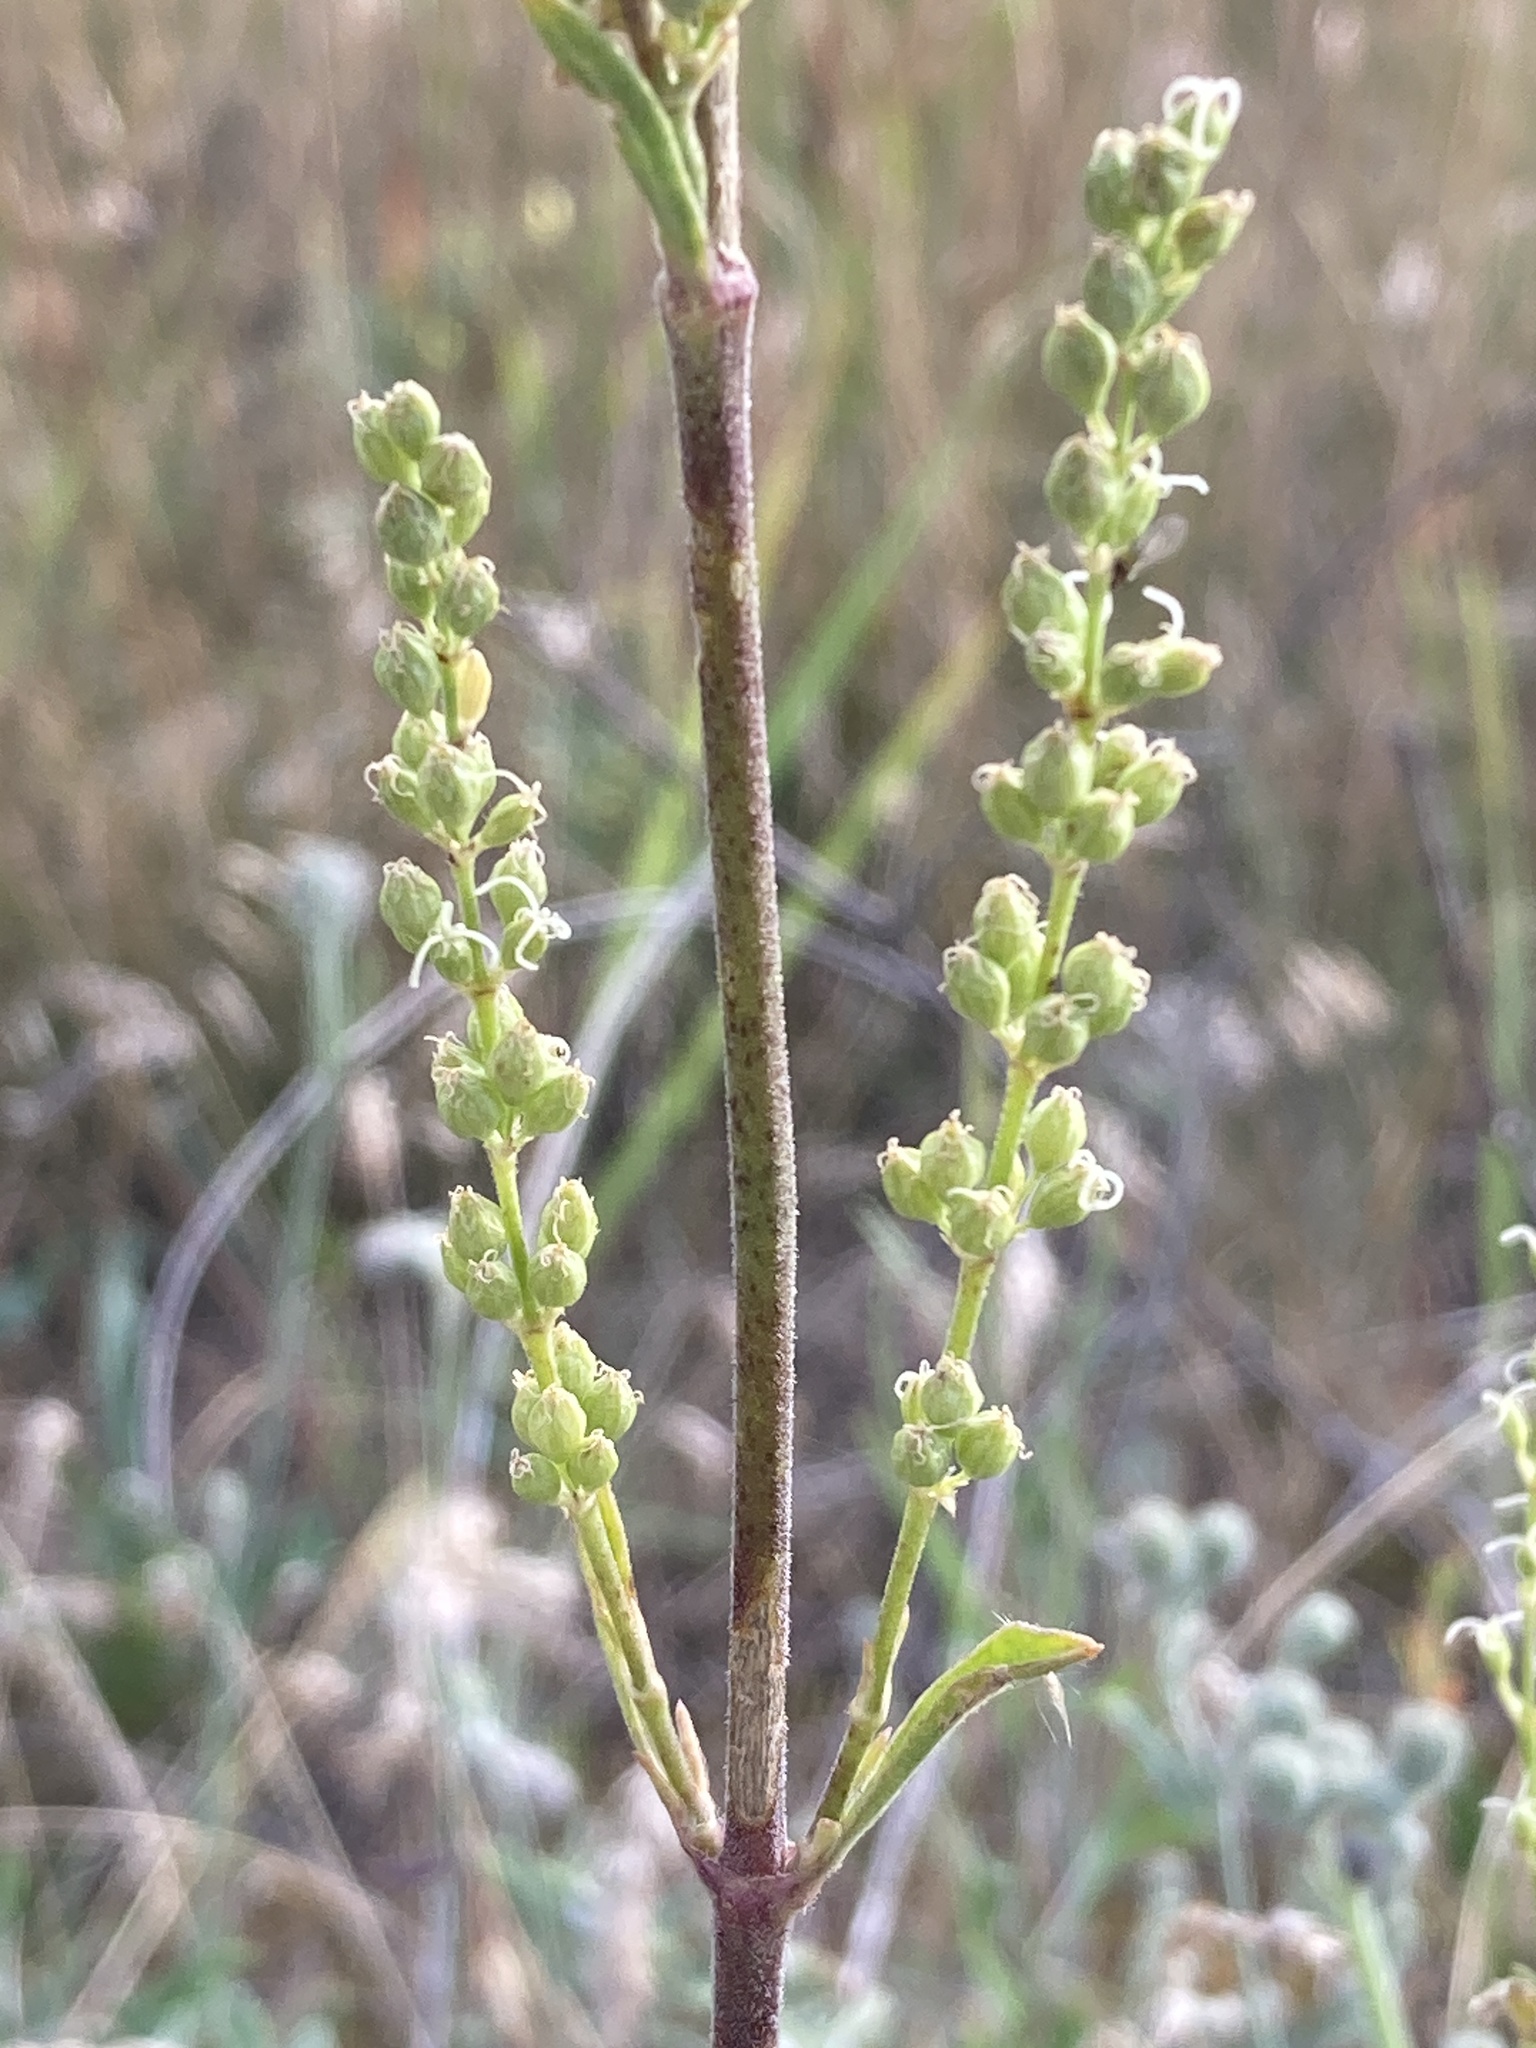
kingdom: Plantae
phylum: Tracheophyta
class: Magnoliopsida
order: Caryophyllales
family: Caryophyllaceae
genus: Silene
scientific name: Silene borysthenica
